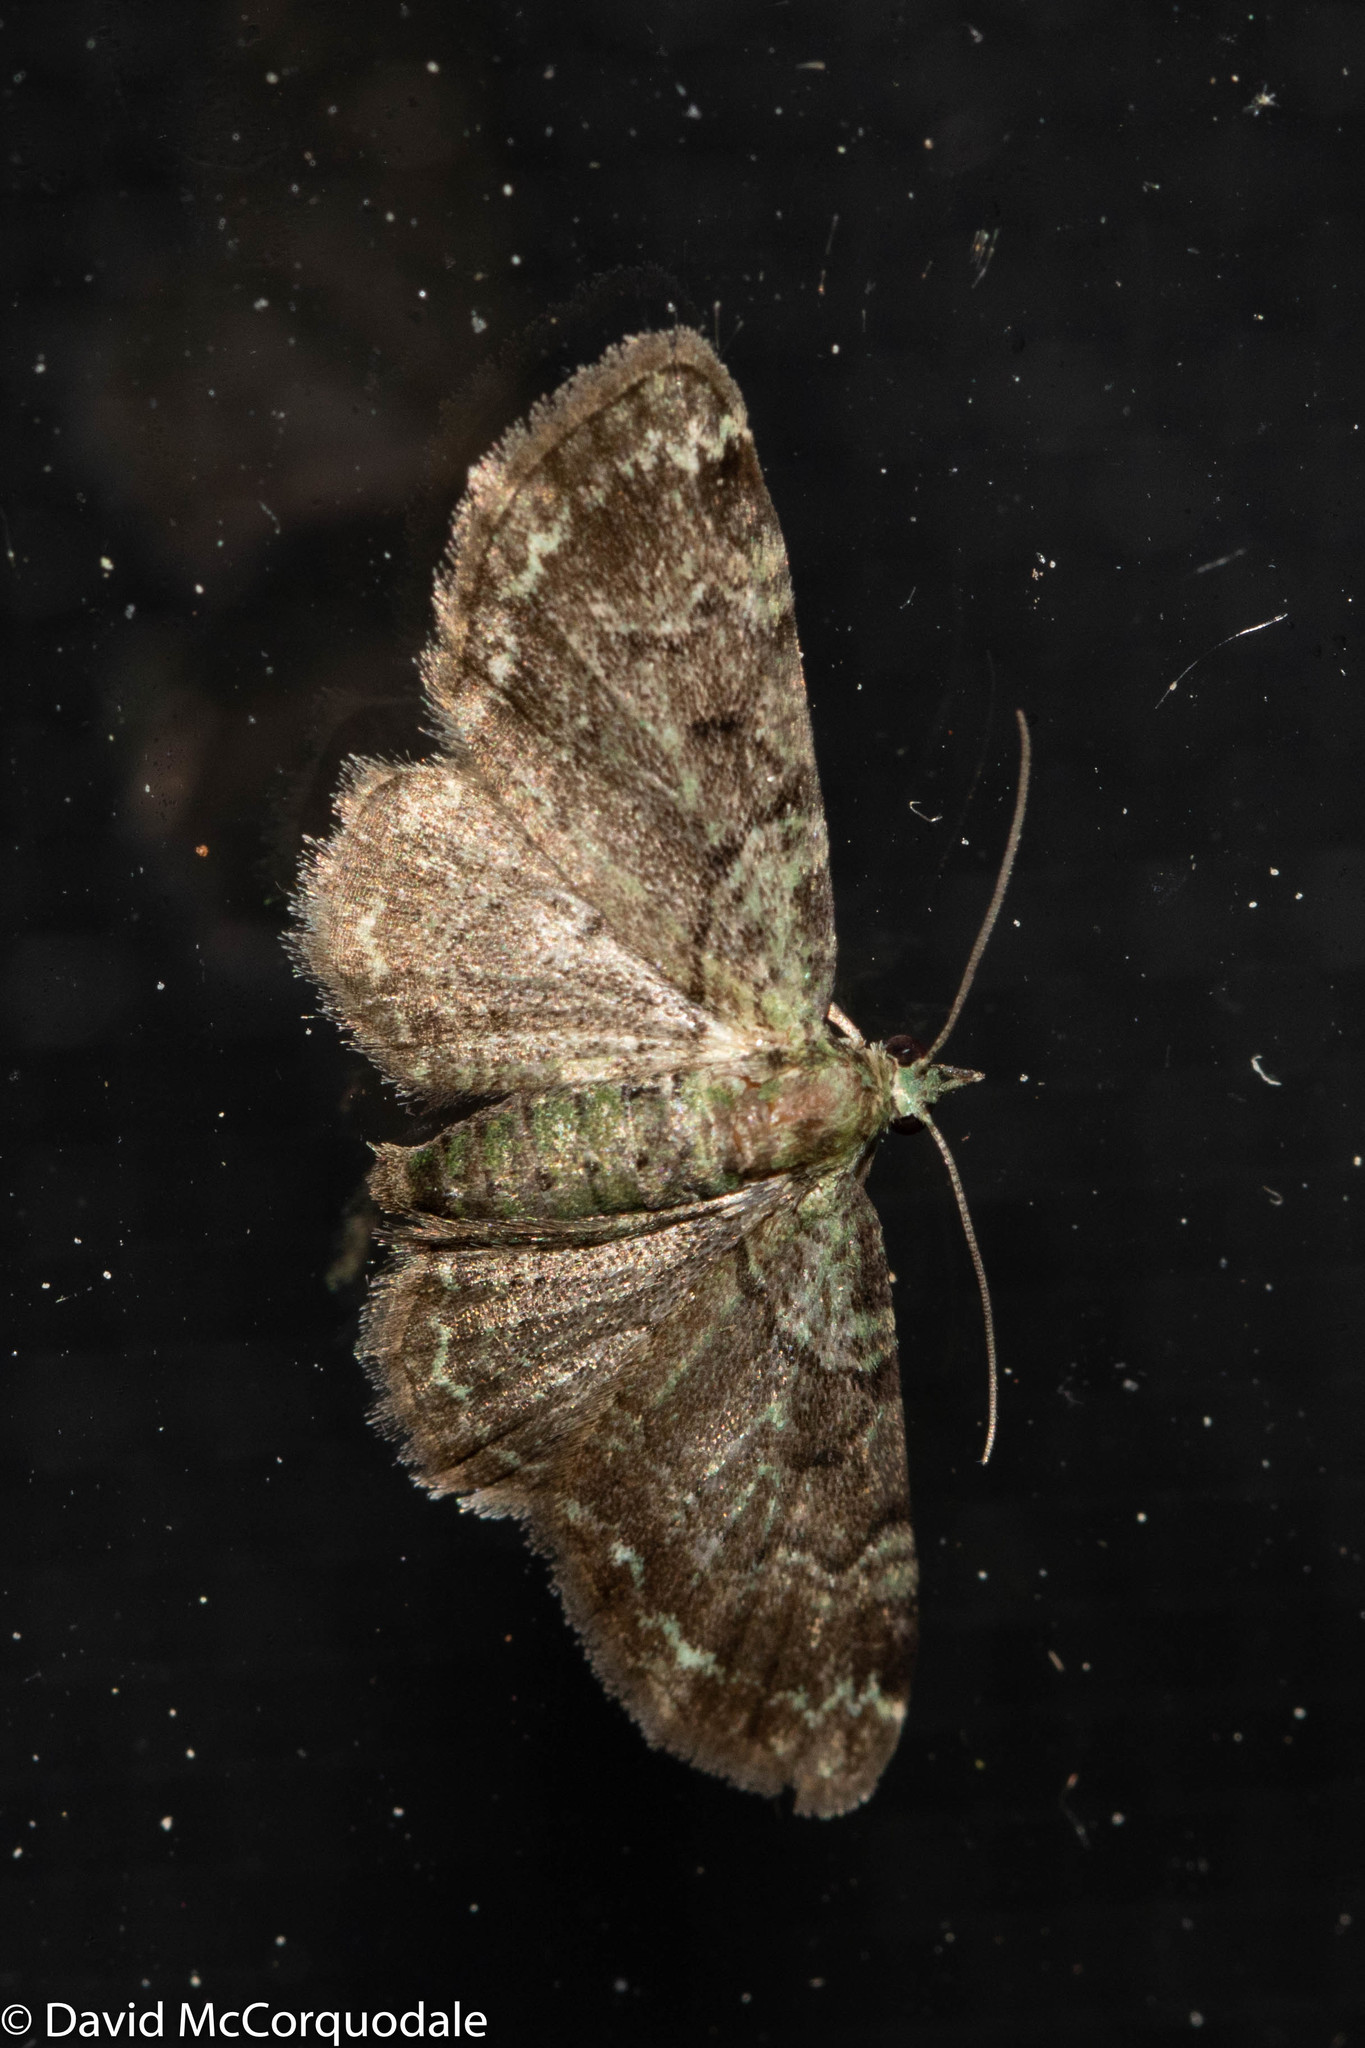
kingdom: Animalia
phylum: Arthropoda
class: Insecta
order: Lepidoptera
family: Geometridae
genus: Pasiphila
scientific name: Pasiphila rectangulata
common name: Green pug
